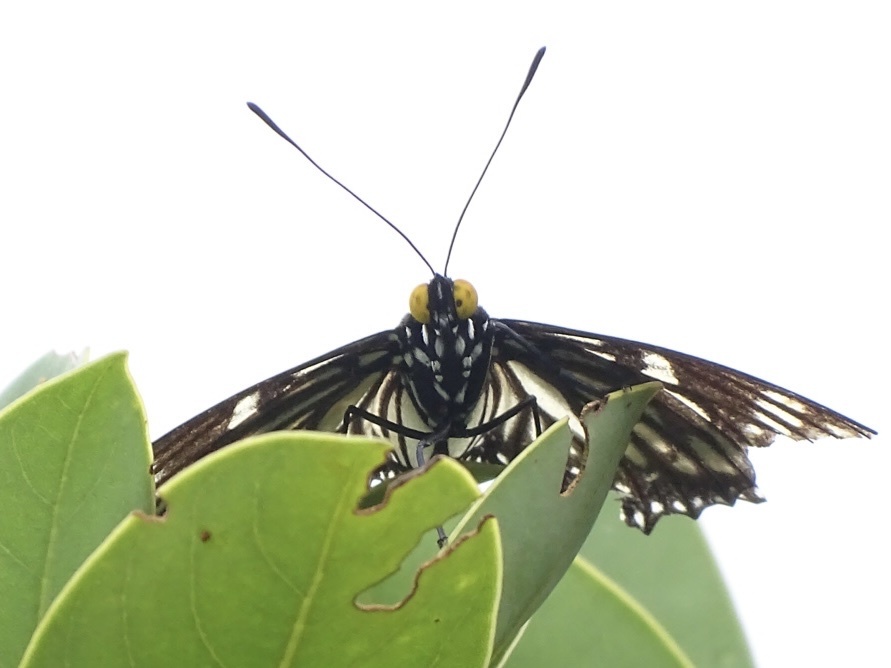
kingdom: Animalia
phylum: Arthropoda
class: Insecta
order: Lepidoptera
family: Nymphalidae
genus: Euripus
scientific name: Euripus nyctelius
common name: Courtesan
